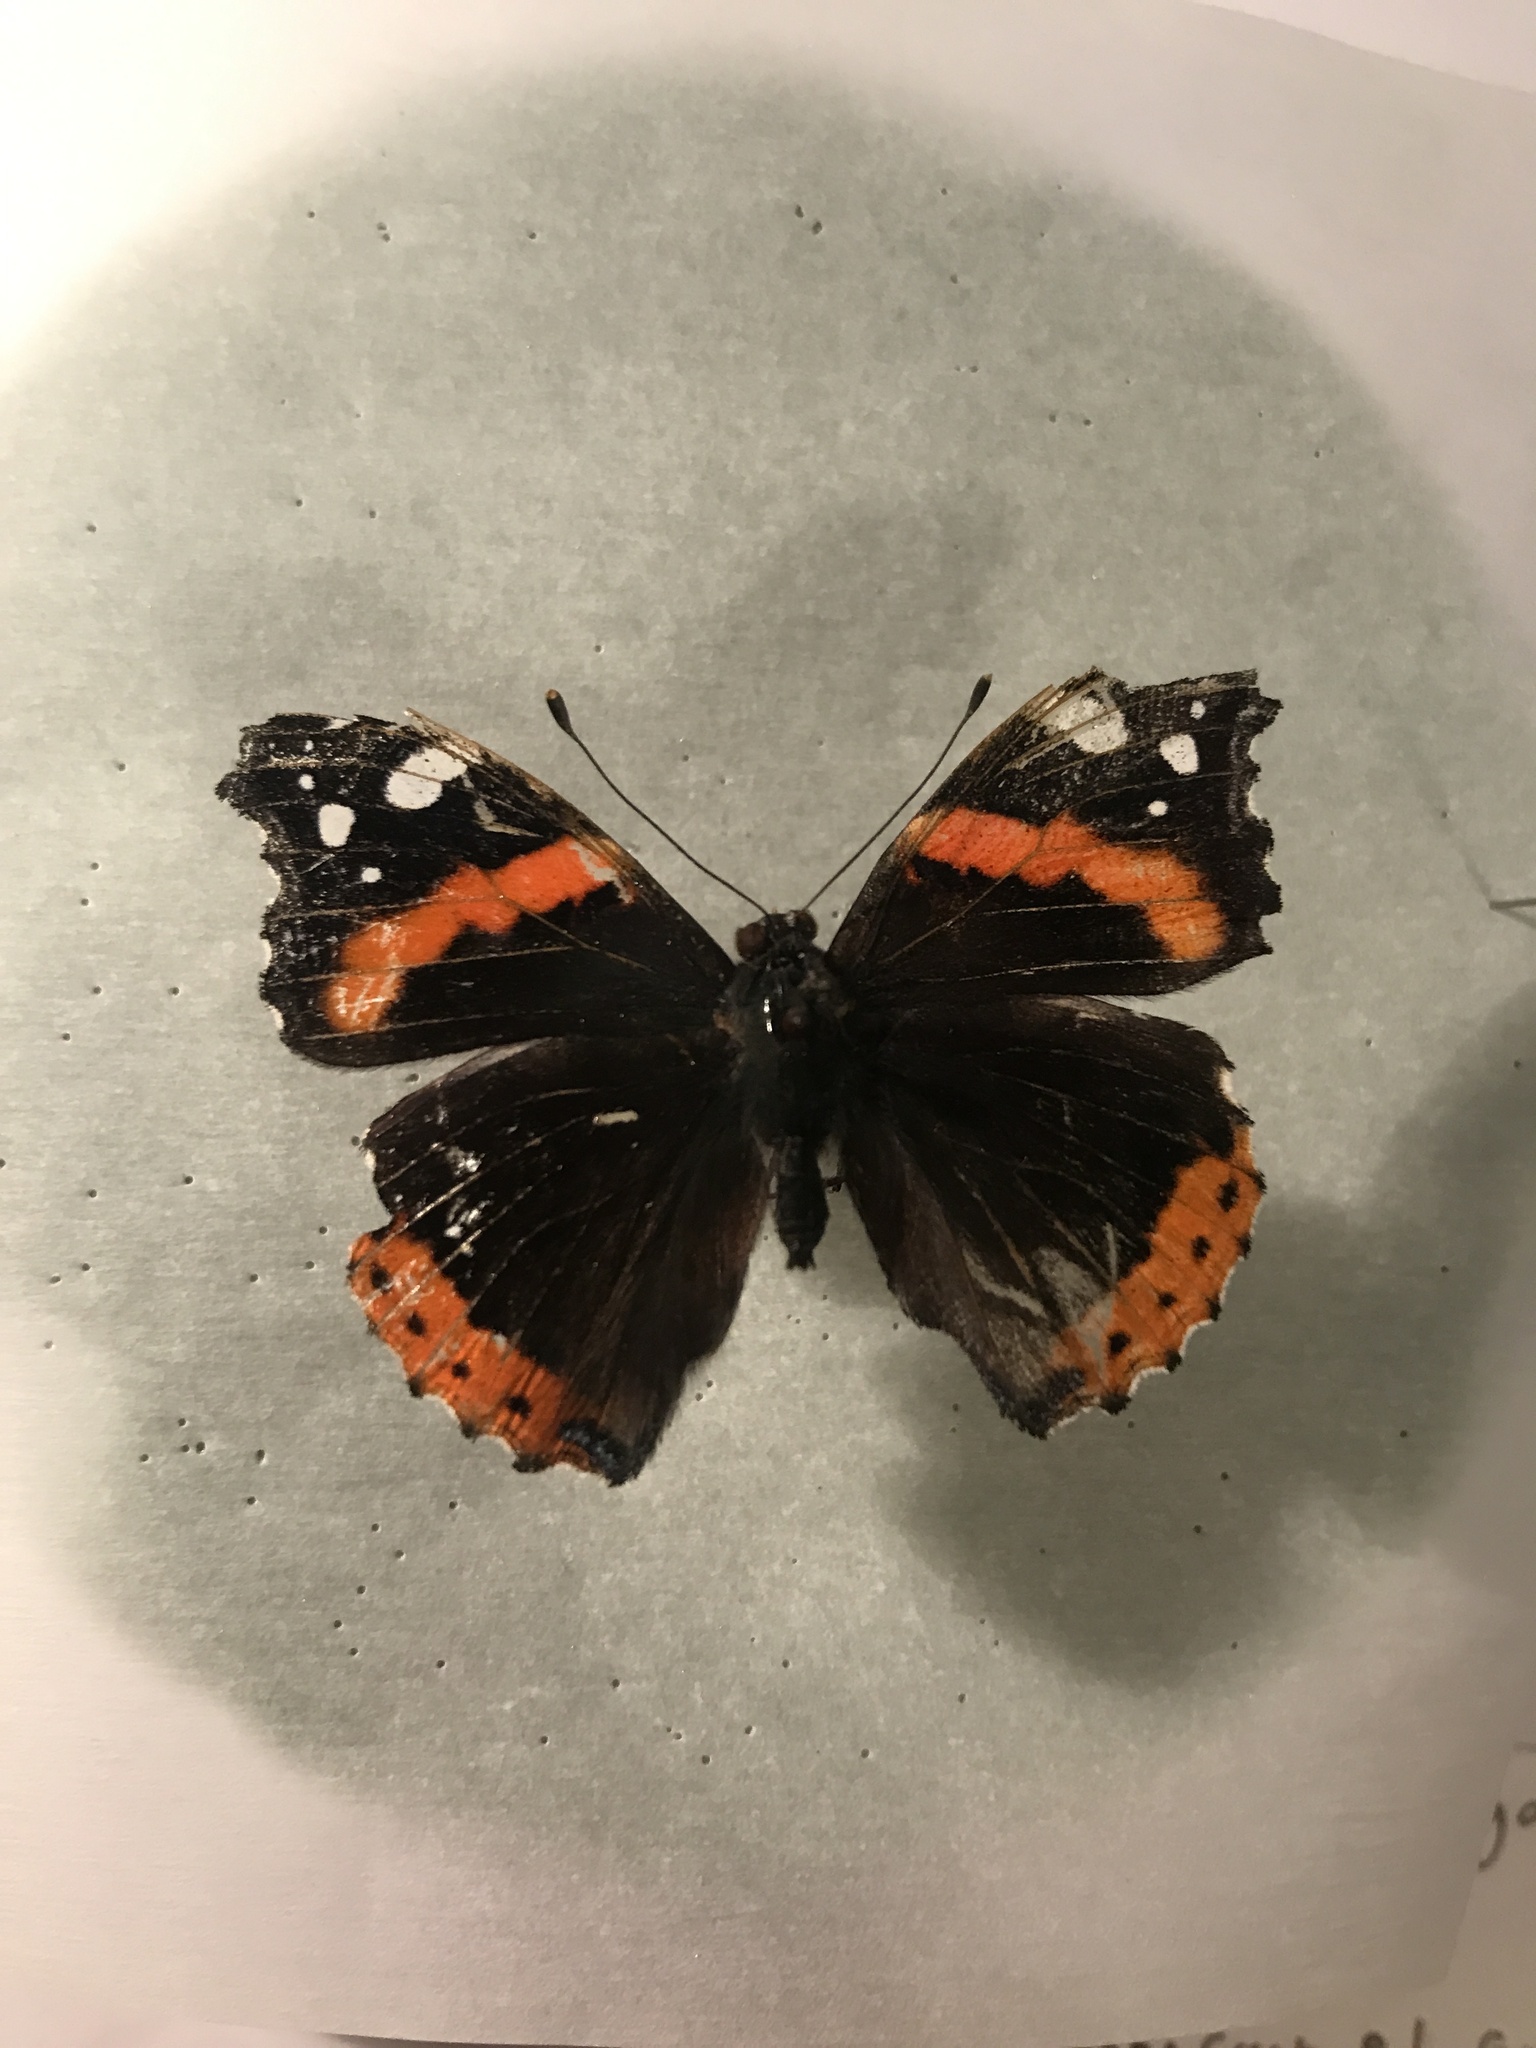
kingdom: Animalia
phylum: Arthropoda
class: Insecta
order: Lepidoptera
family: Nymphalidae
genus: Vanessa
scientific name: Vanessa atalanta
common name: Red admiral
